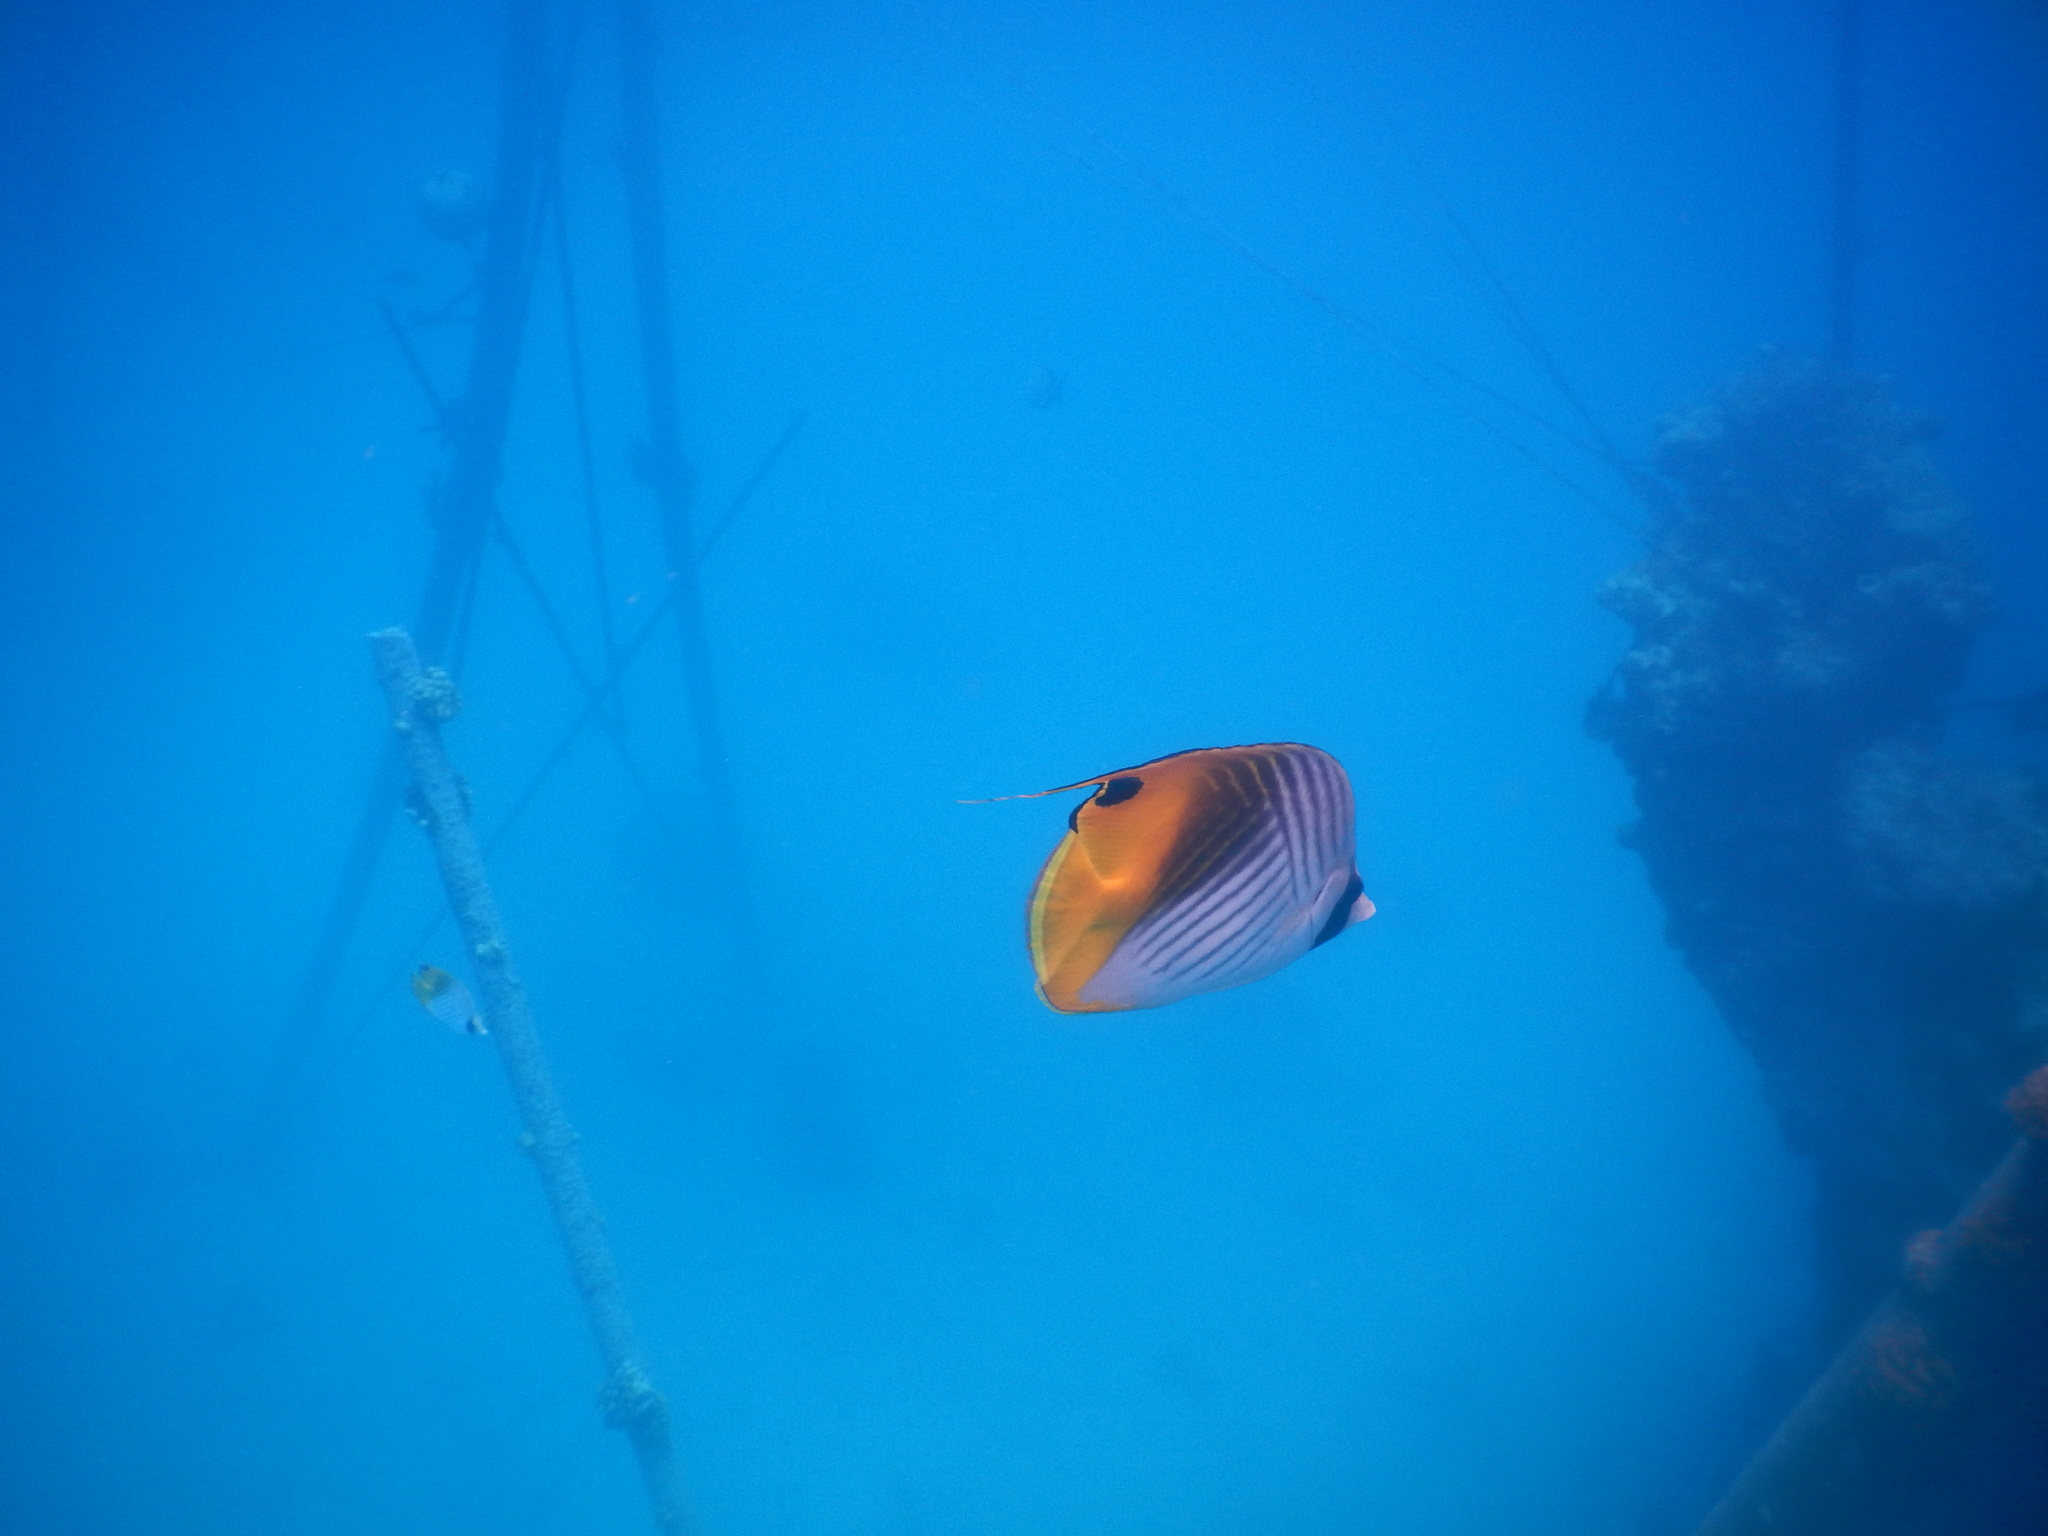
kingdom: Animalia
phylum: Chordata
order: Perciformes
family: Chaetodontidae
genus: Chaetodon
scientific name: Chaetodon auriga
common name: Threadfin butterflyfish
